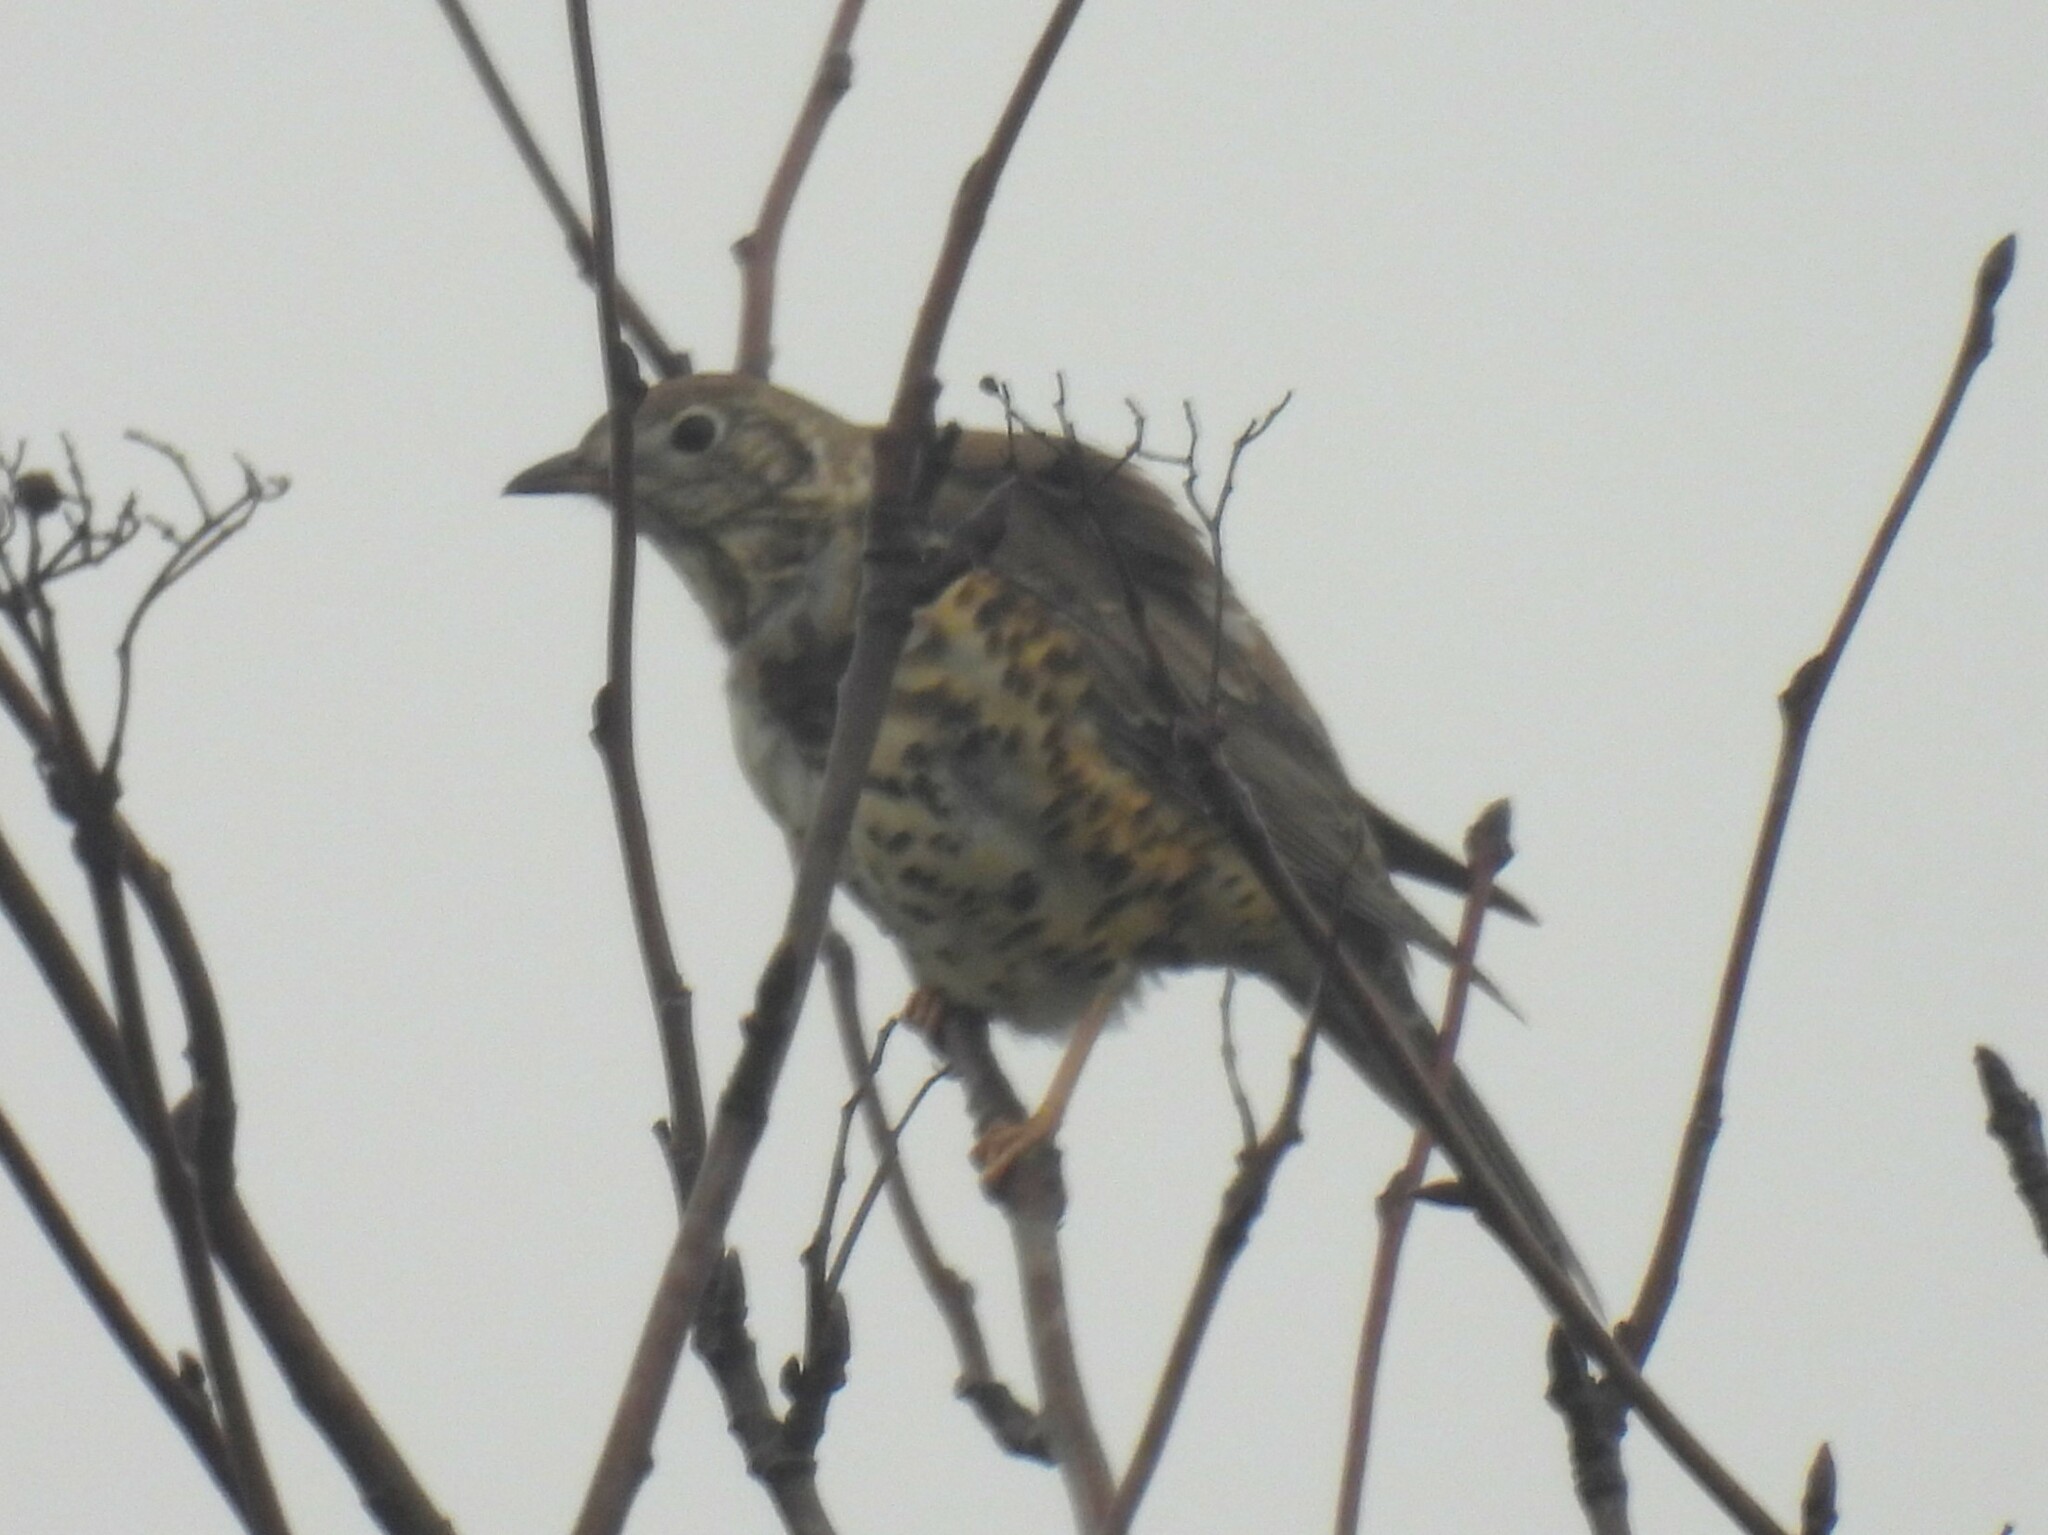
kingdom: Animalia
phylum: Chordata
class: Aves
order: Passeriformes
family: Turdidae
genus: Turdus
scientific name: Turdus viscivorus
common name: Mistle thrush
